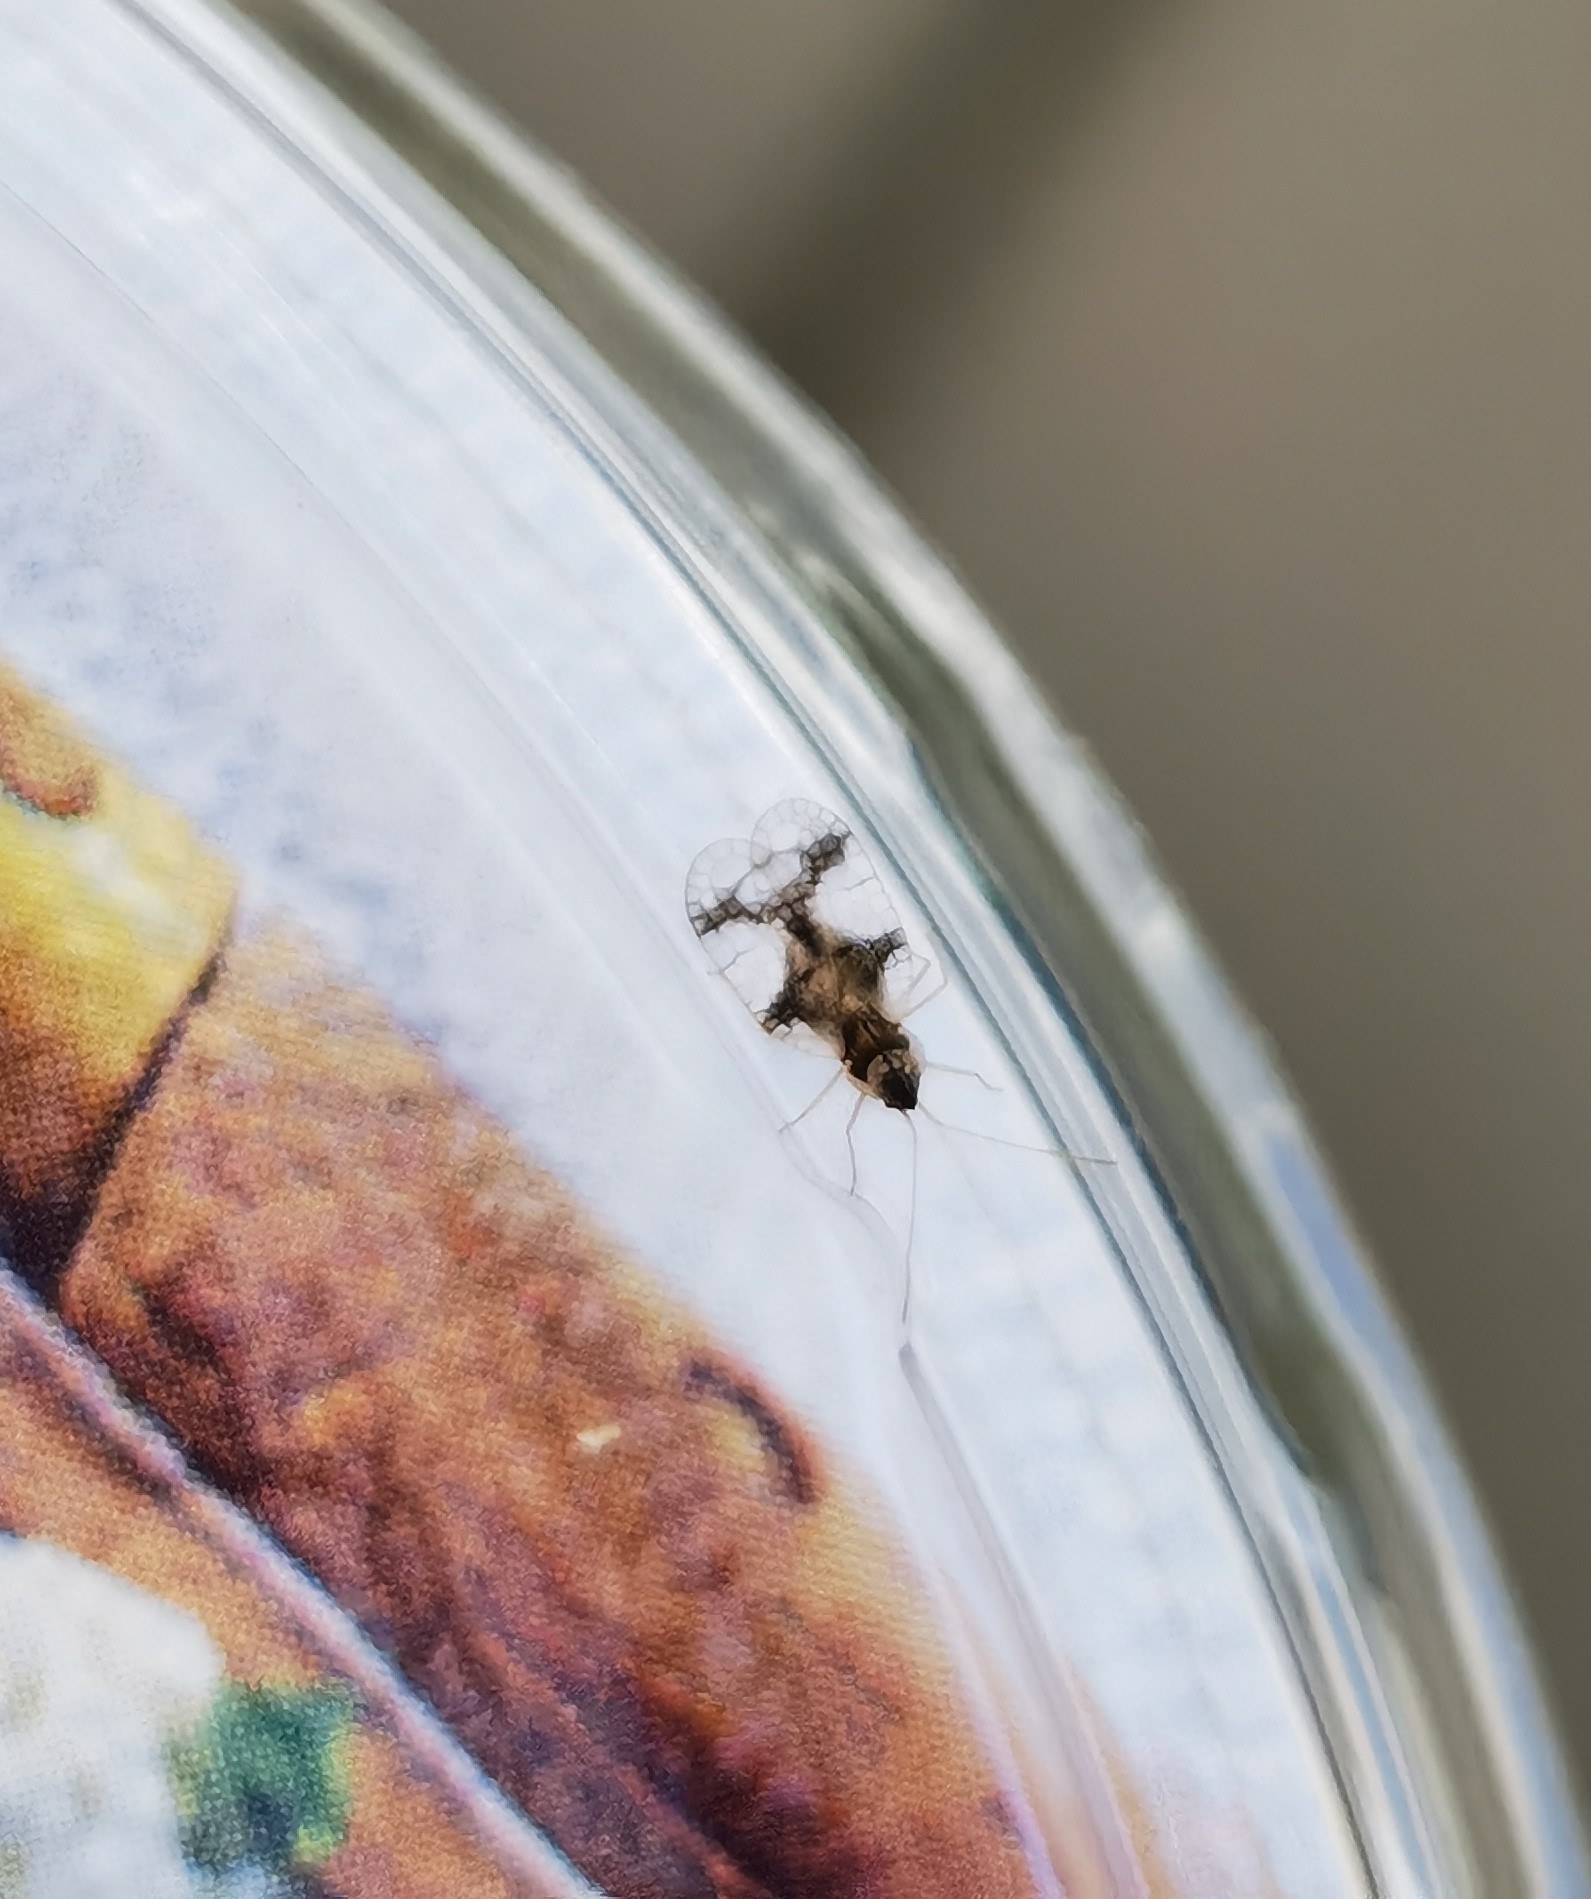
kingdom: Animalia
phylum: Arthropoda
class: Insecta
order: Hemiptera
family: Tingidae
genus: Stephanitis
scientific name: Stephanitis takeyai
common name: Andromeda lacebug
